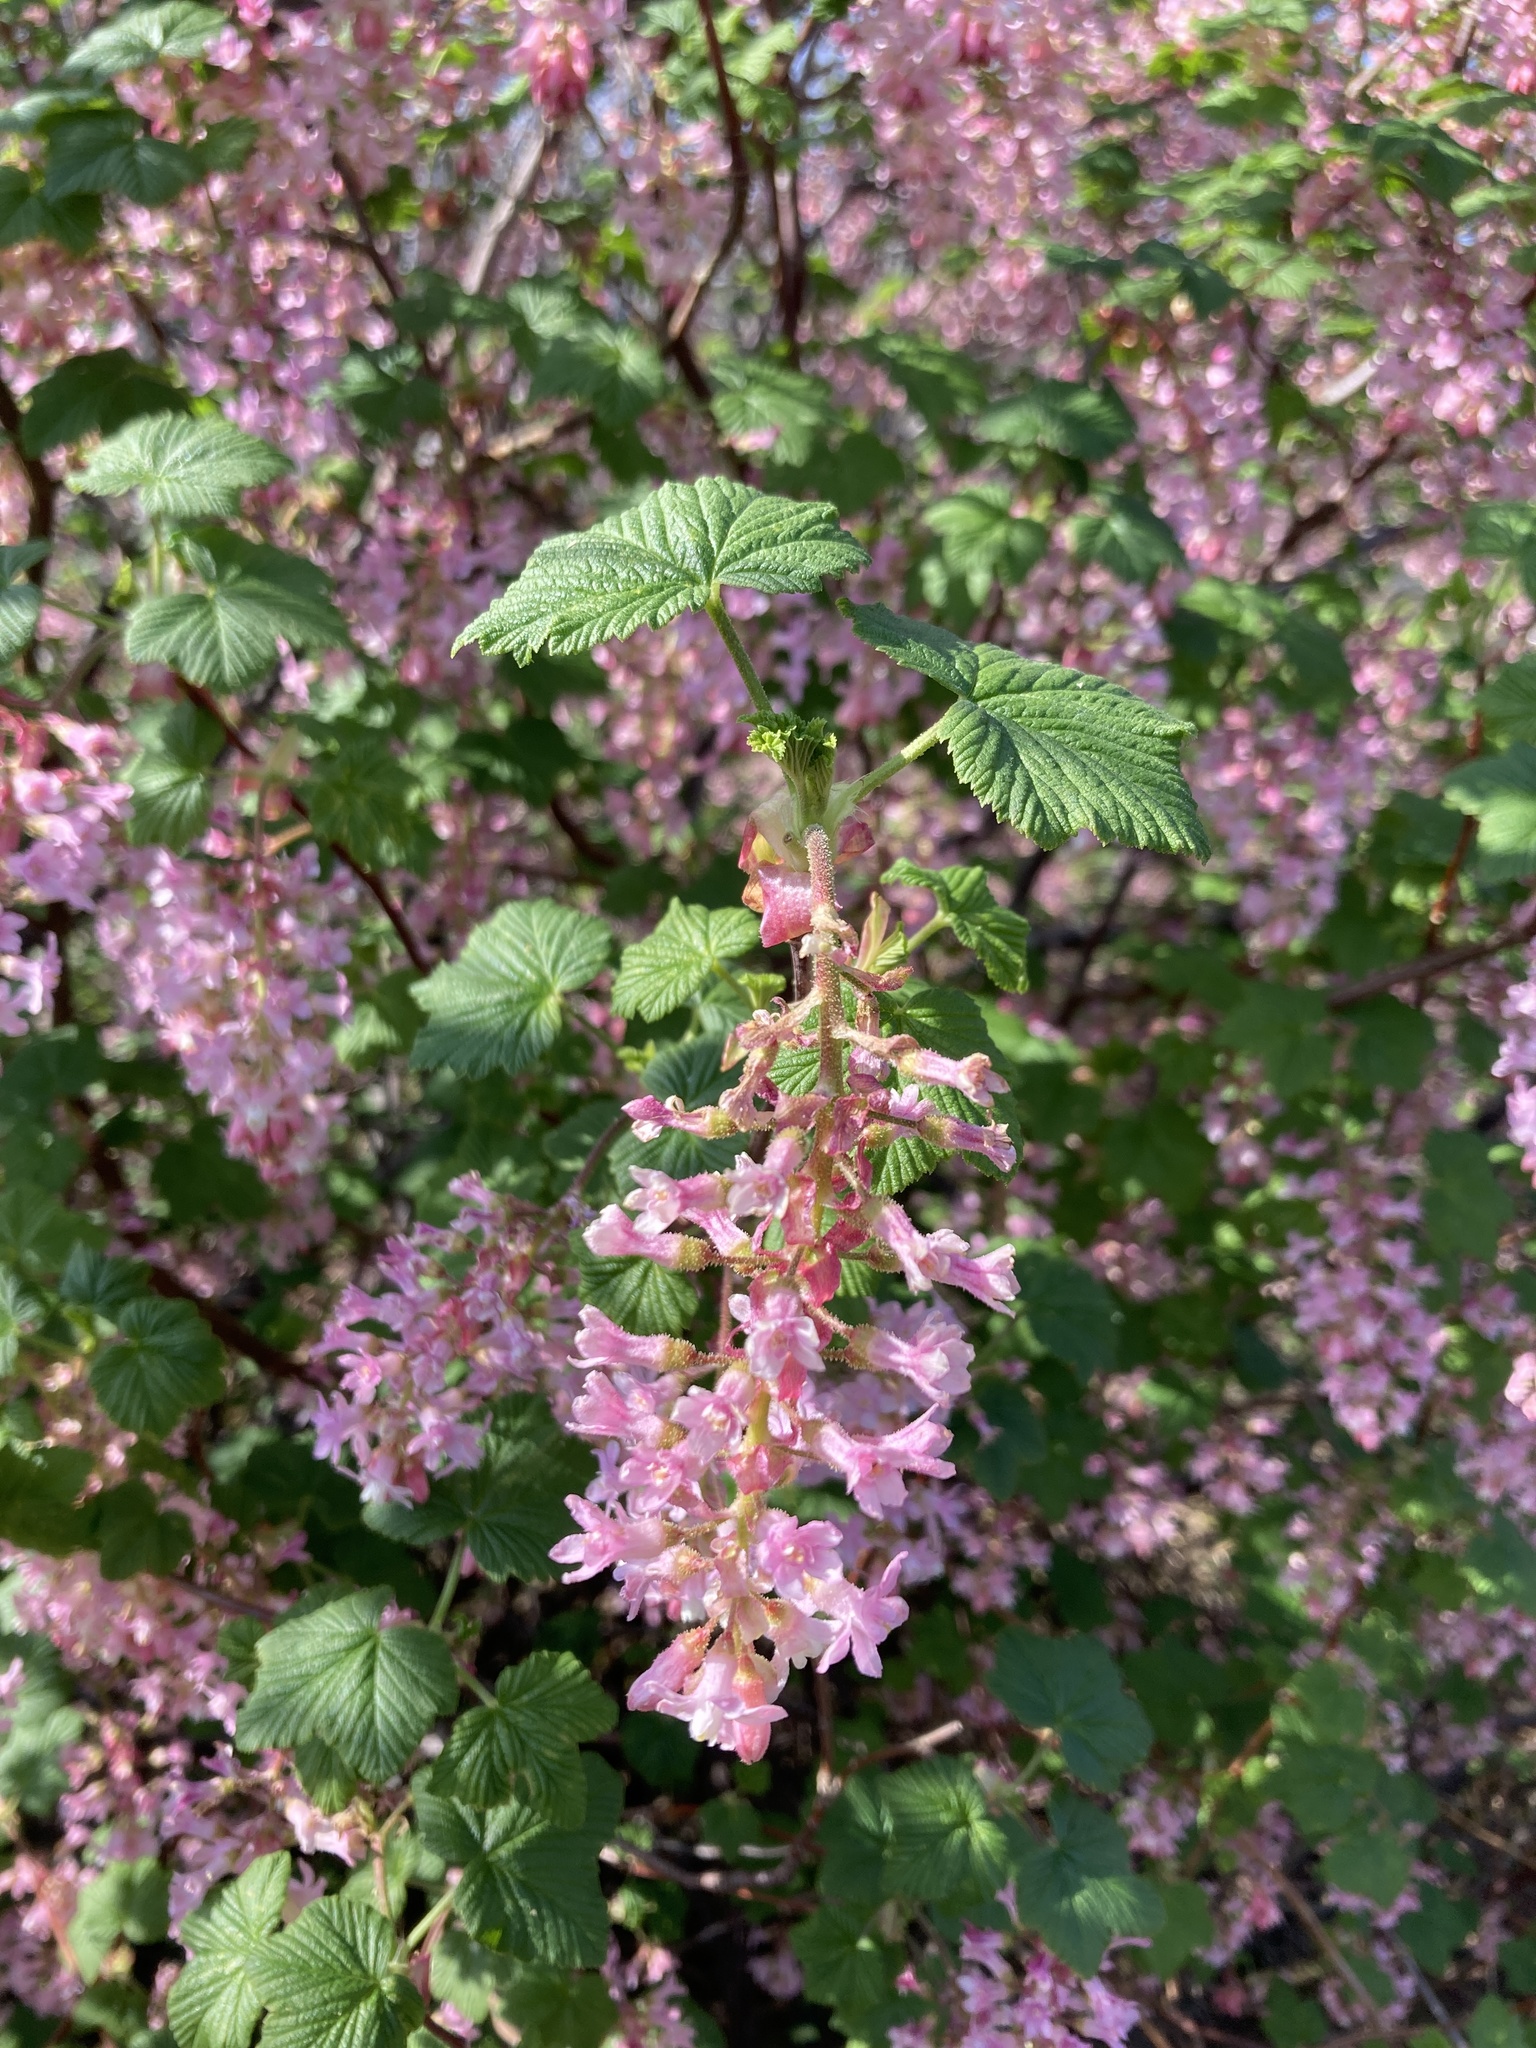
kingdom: Plantae
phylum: Tracheophyta
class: Magnoliopsida
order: Saxifragales
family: Grossulariaceae
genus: Ribes
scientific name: Ribes sanguineum
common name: Flowering currant
